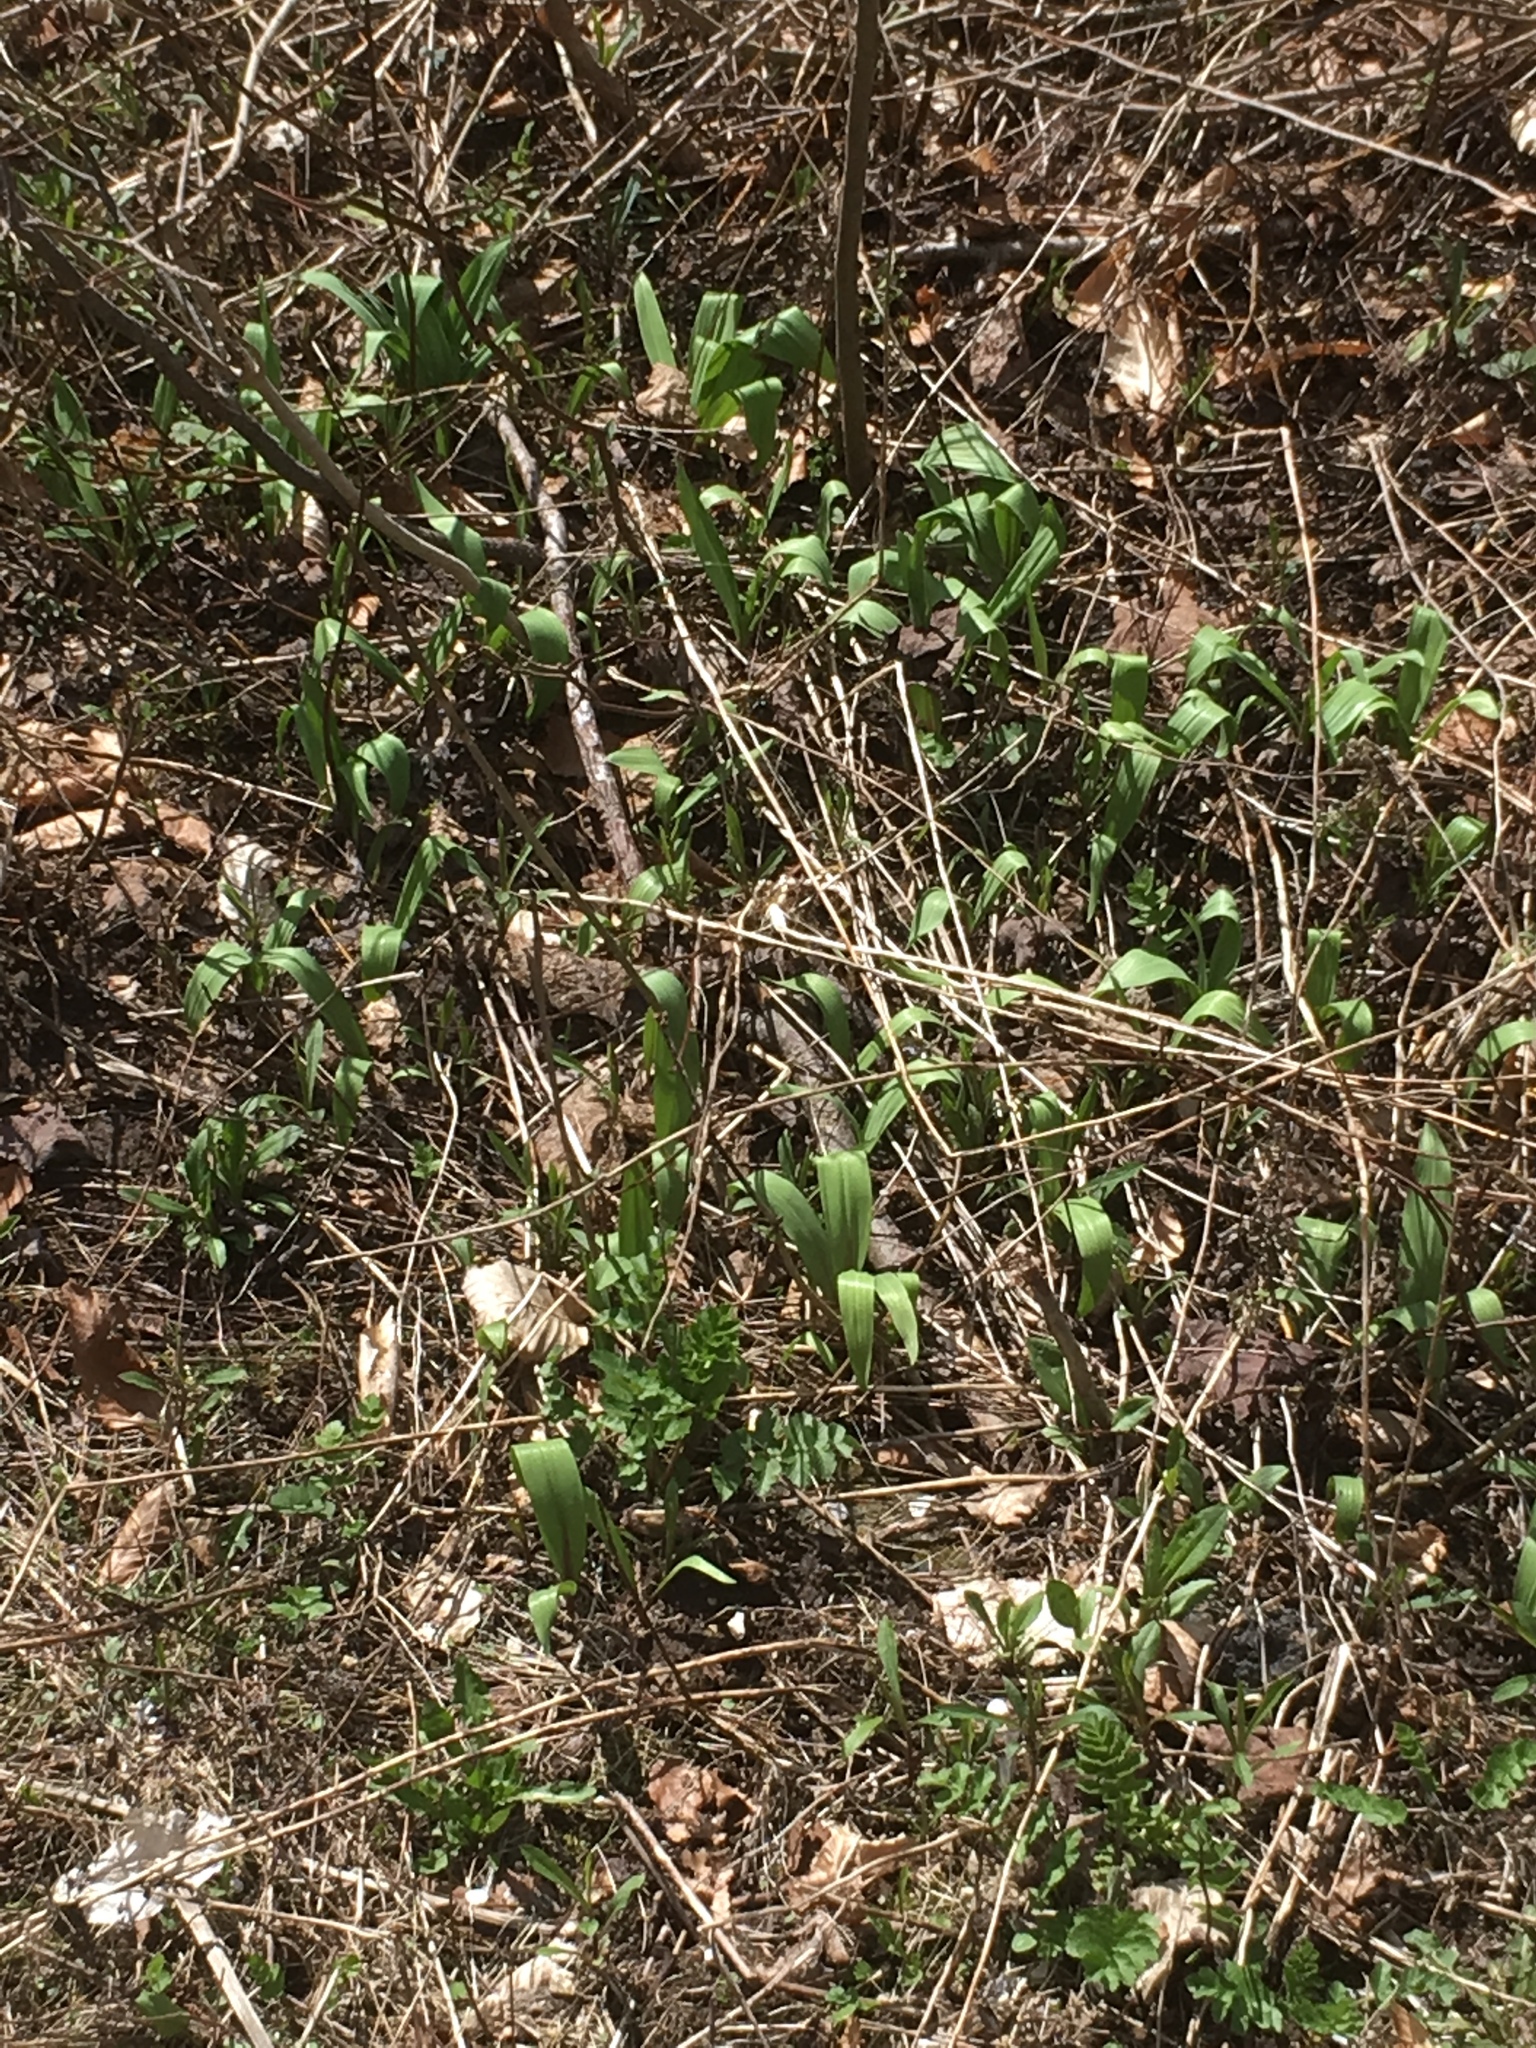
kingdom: Plantae
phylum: Tracheophyta
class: Liliopsida
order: Asparagales
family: Amaryllidaceae
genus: Allium
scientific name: Allium tricoccum
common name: Ramp
